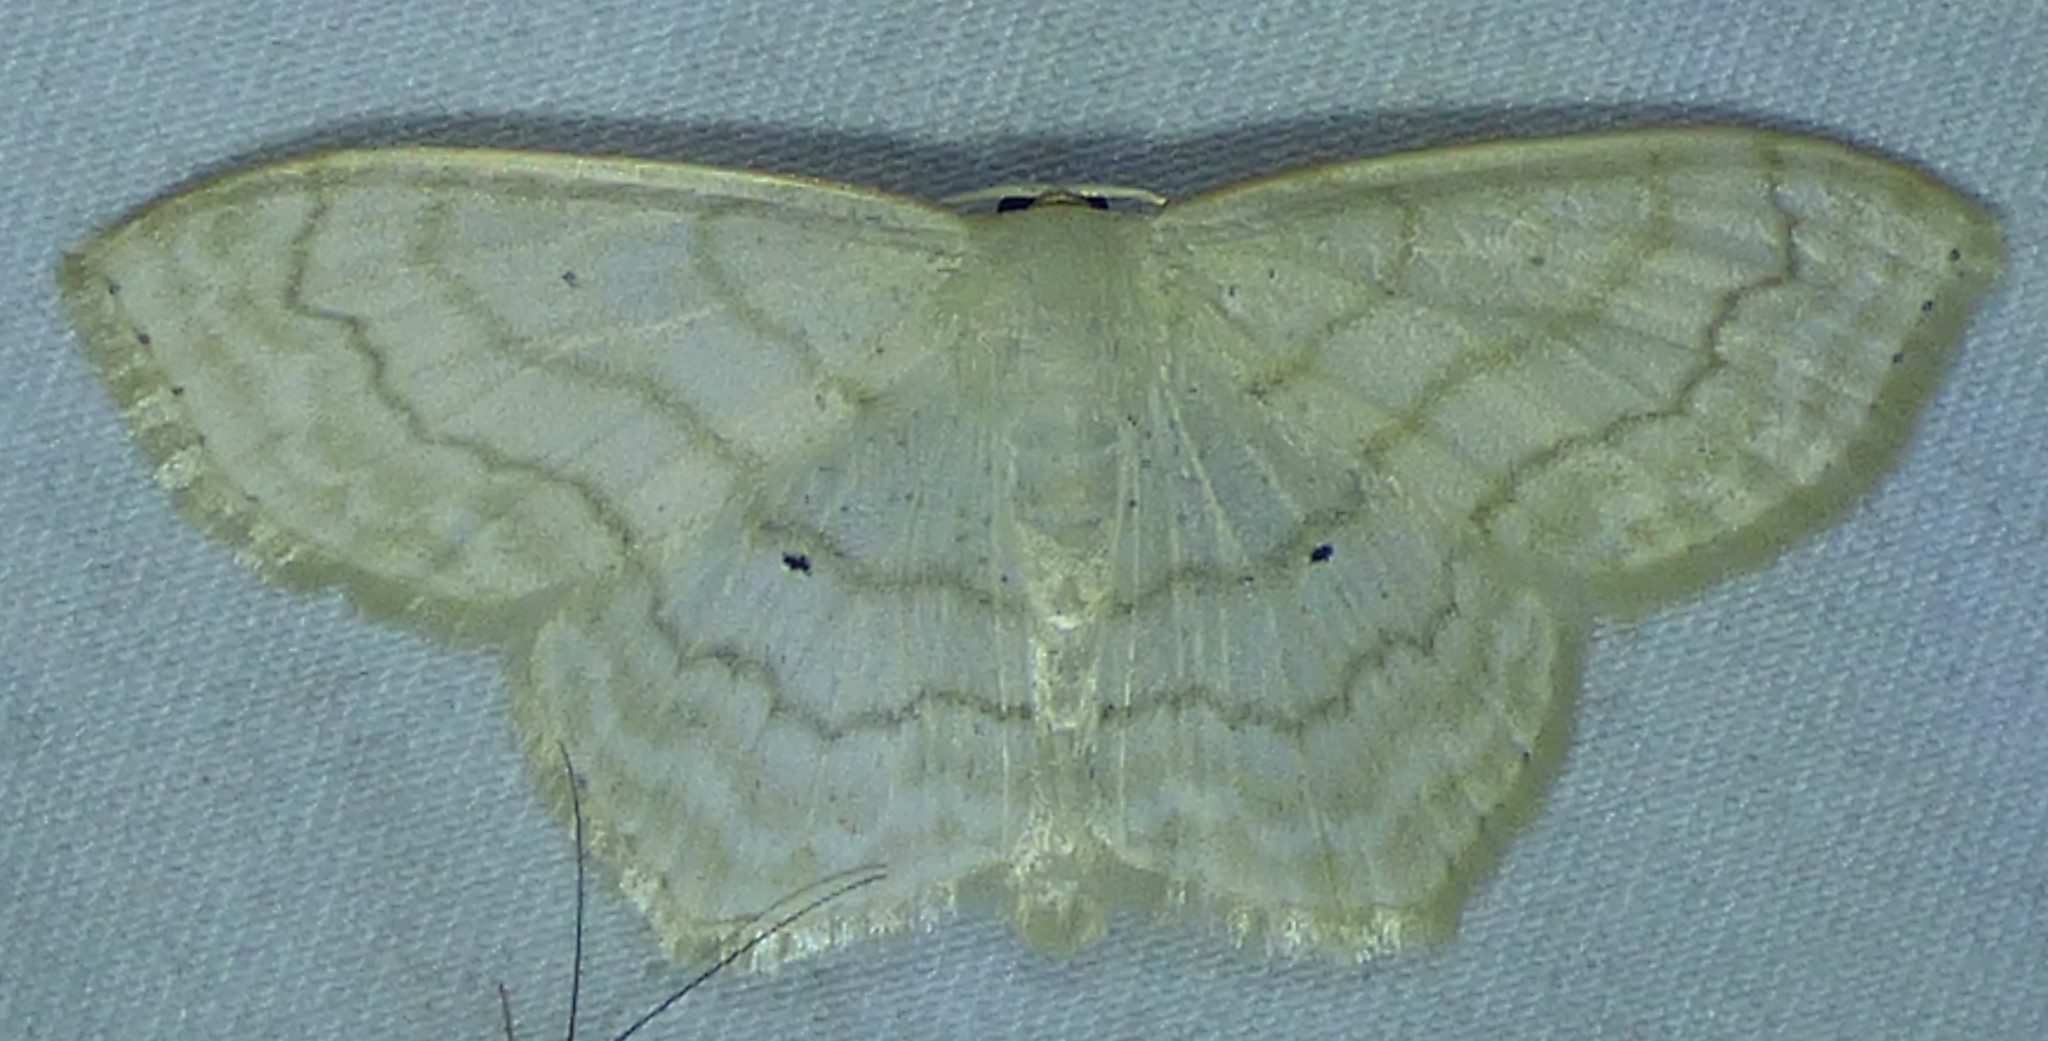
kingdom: Animalia
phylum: Arthropoda
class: Insecta
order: Lepidoptera
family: Geometridae
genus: Scopula
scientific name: Scopula limboundata
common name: Large lace border
